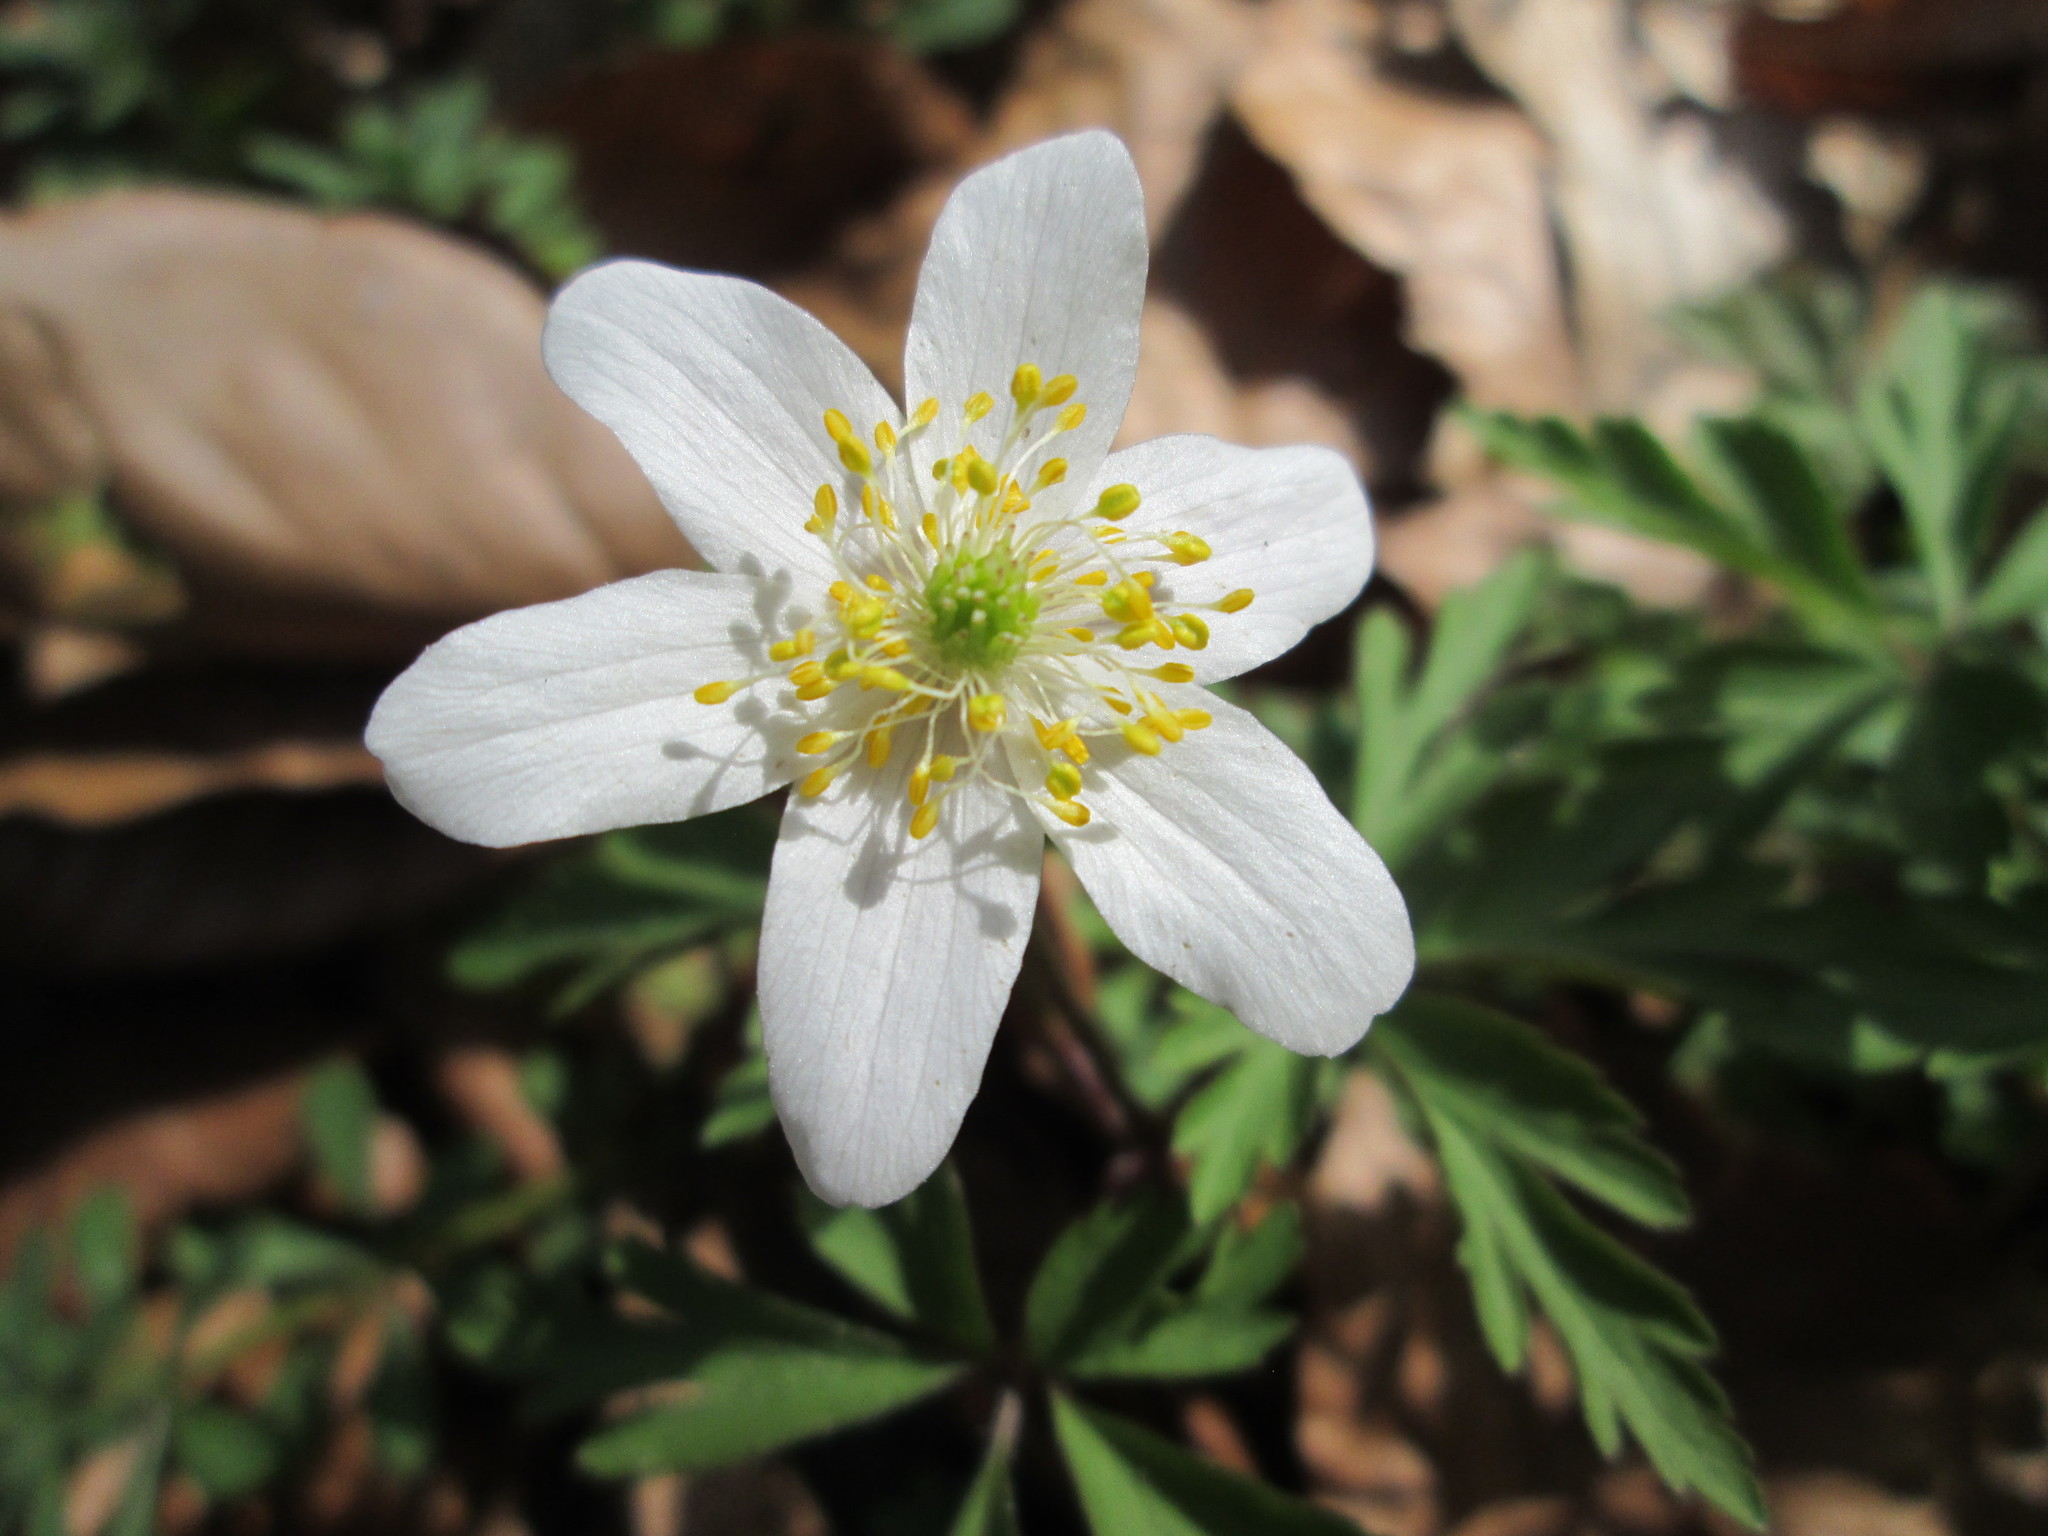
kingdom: Plantae
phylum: Tracheophyta
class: Magnoliopsida
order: Ranunculales
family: Ranunculaceae
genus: Anemone
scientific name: Anemone nemorosa
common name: Wood anemone
